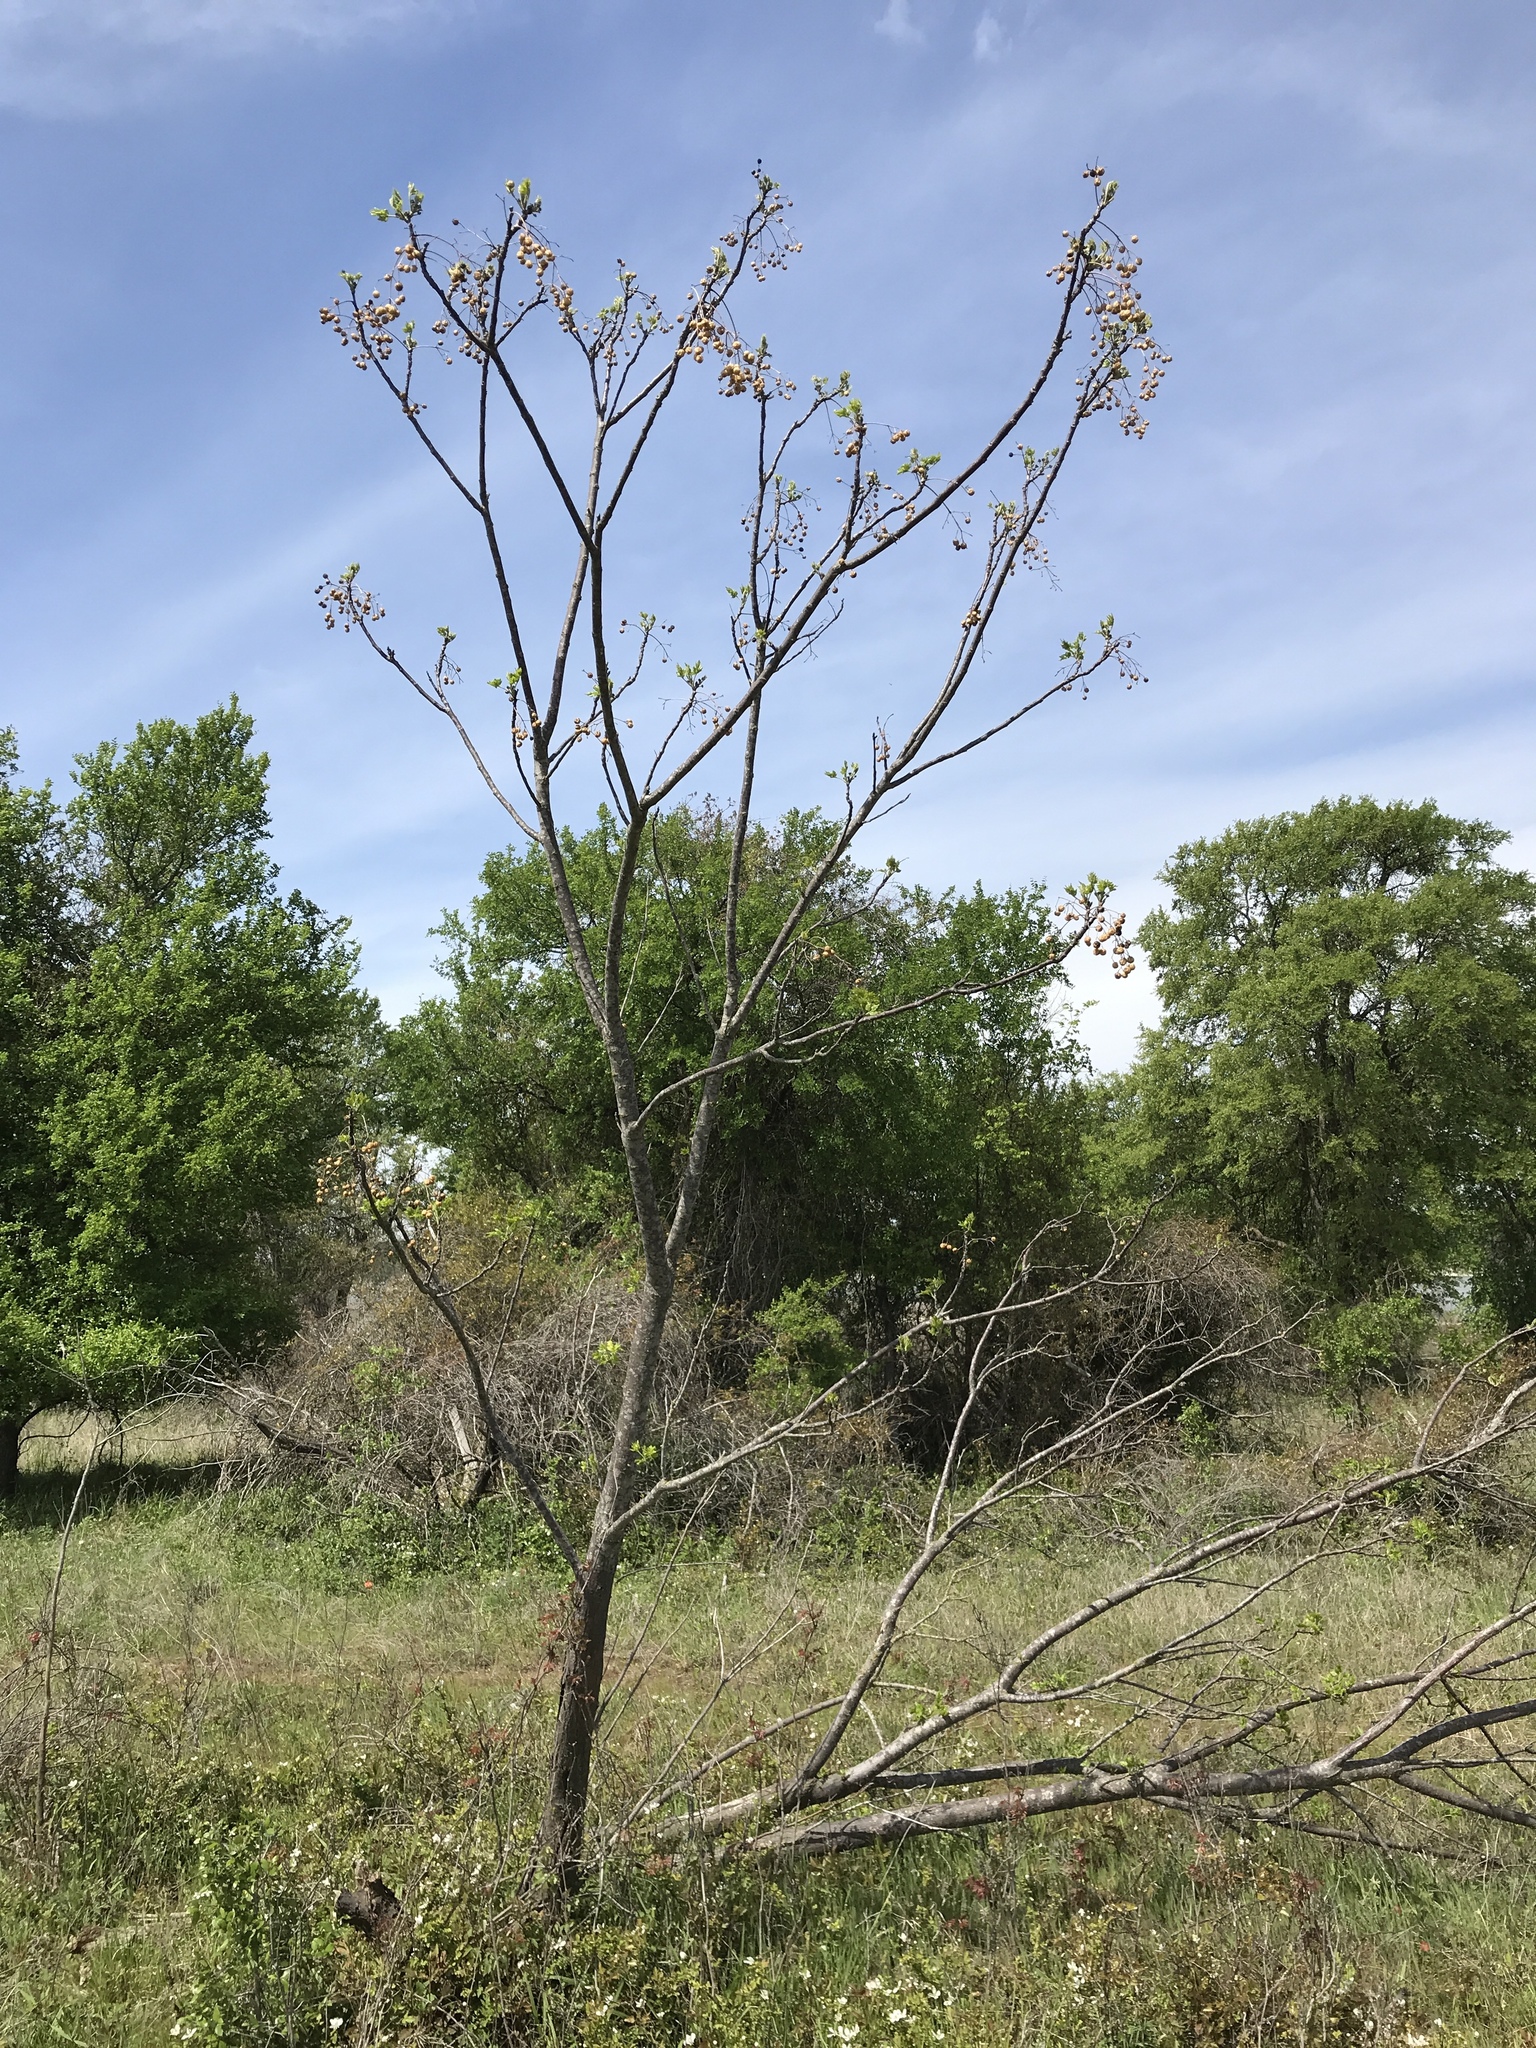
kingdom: Plantae
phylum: Tracheophyta
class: Magnoliopsida
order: Sapindales
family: Meliaceae
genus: Melia
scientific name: Melia azedarach
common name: Chinaberrytree
